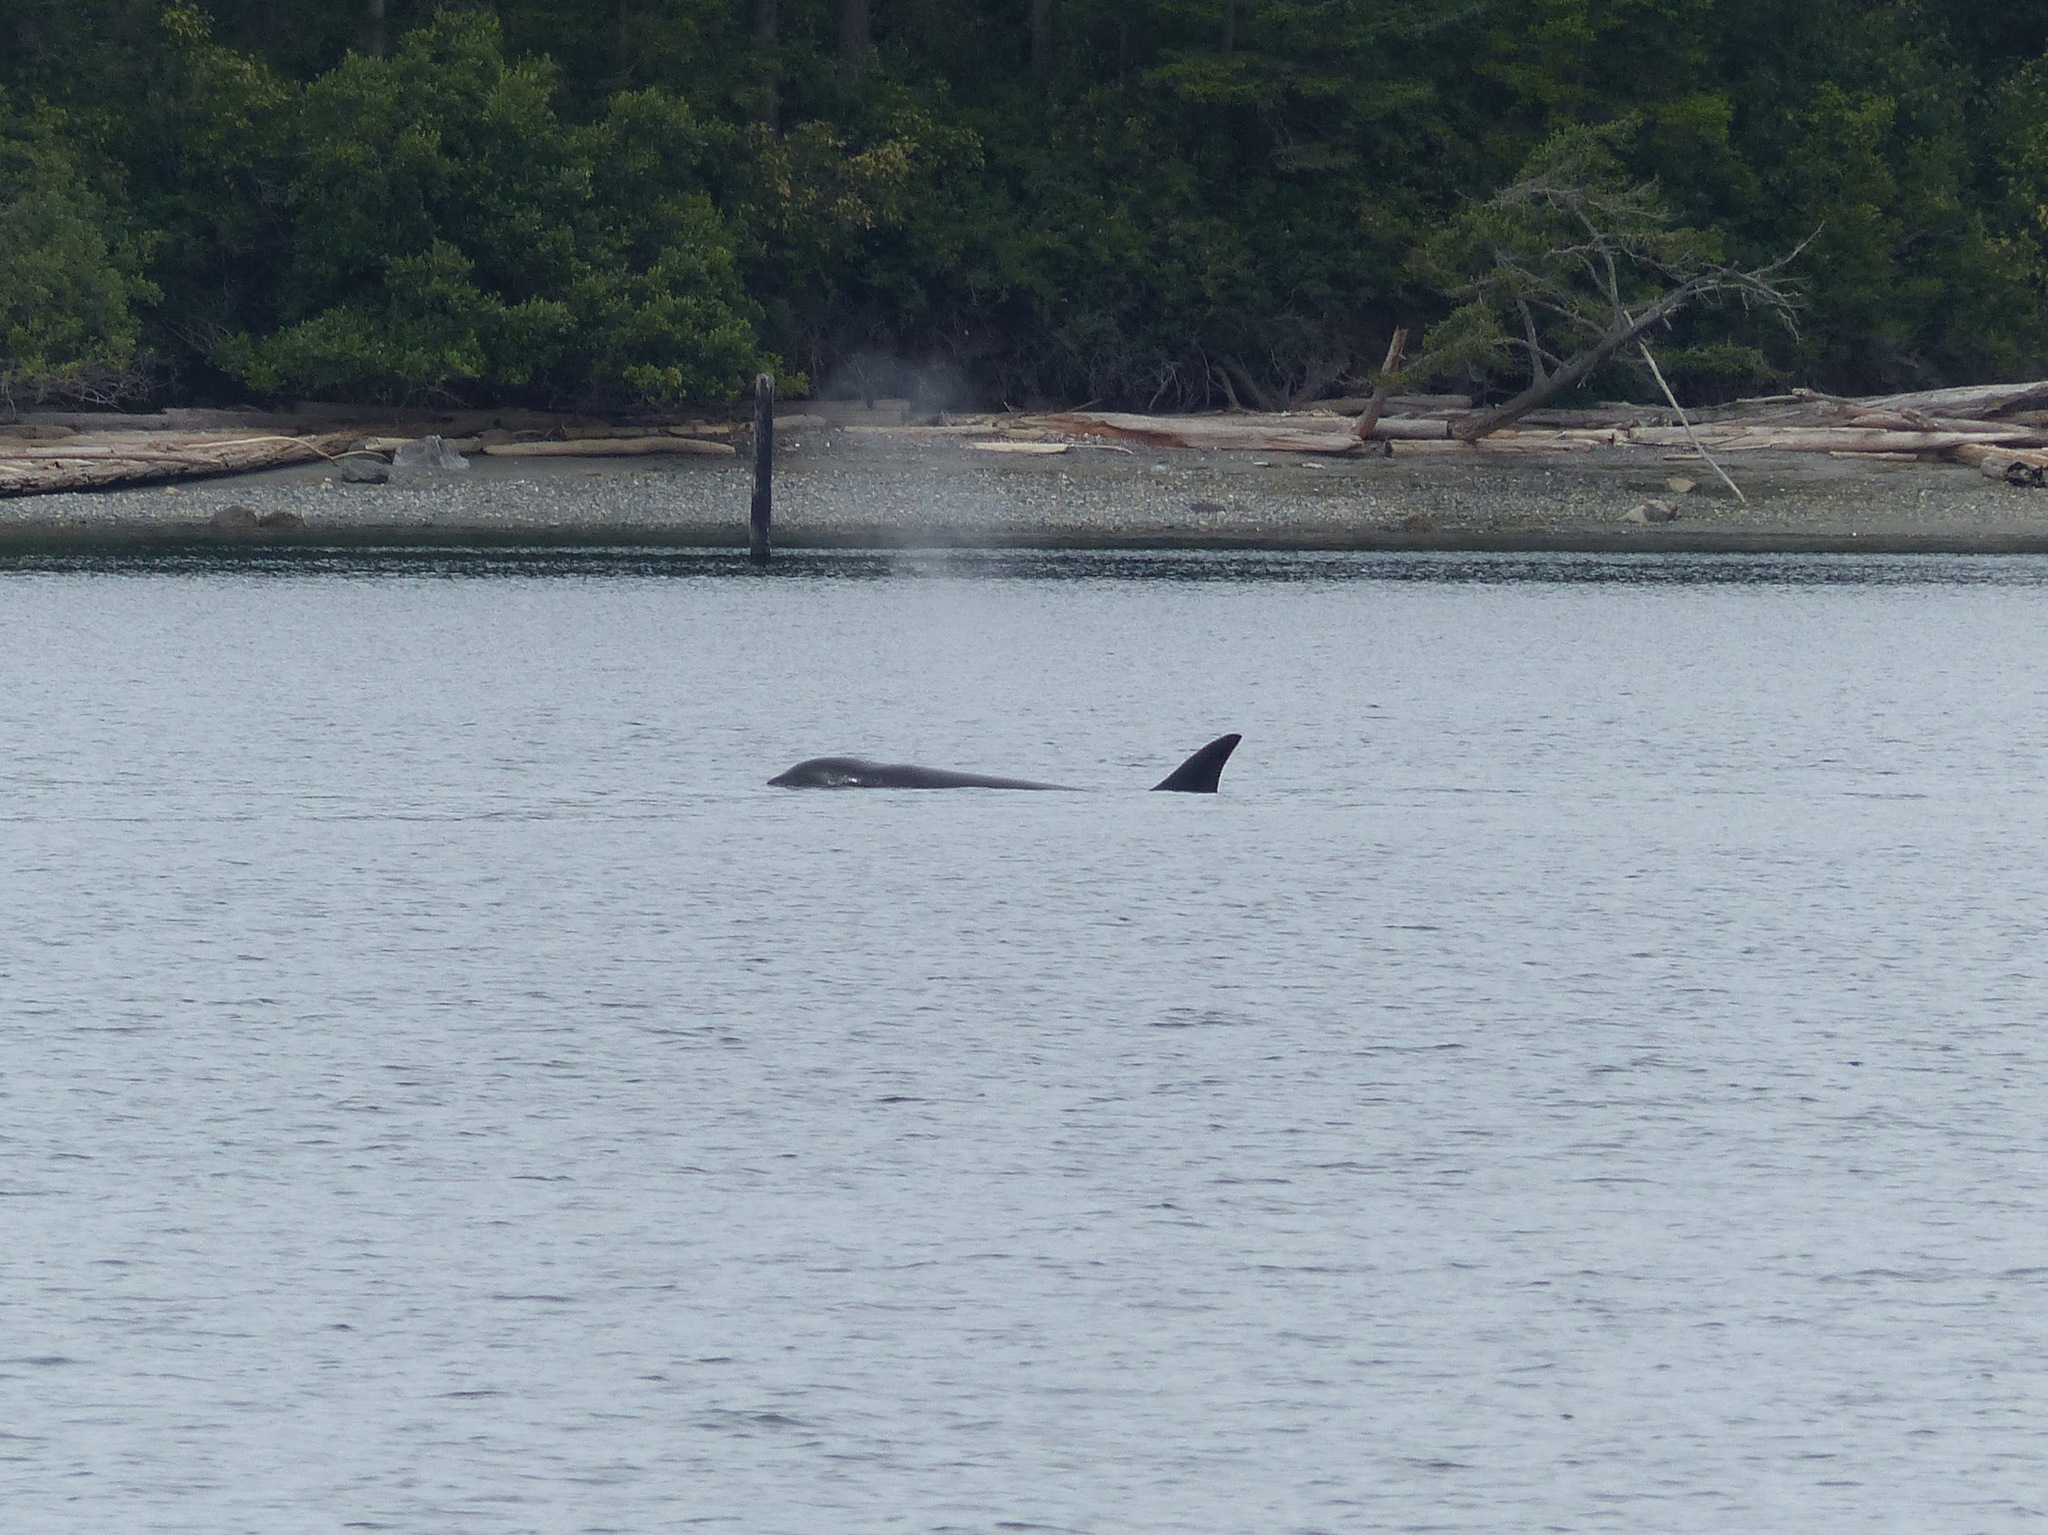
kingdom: Animalia
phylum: Chordata
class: Mammalia
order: Cetacea
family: Delphinidae
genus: Orcinus
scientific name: Orcinus orca
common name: Killer whale
